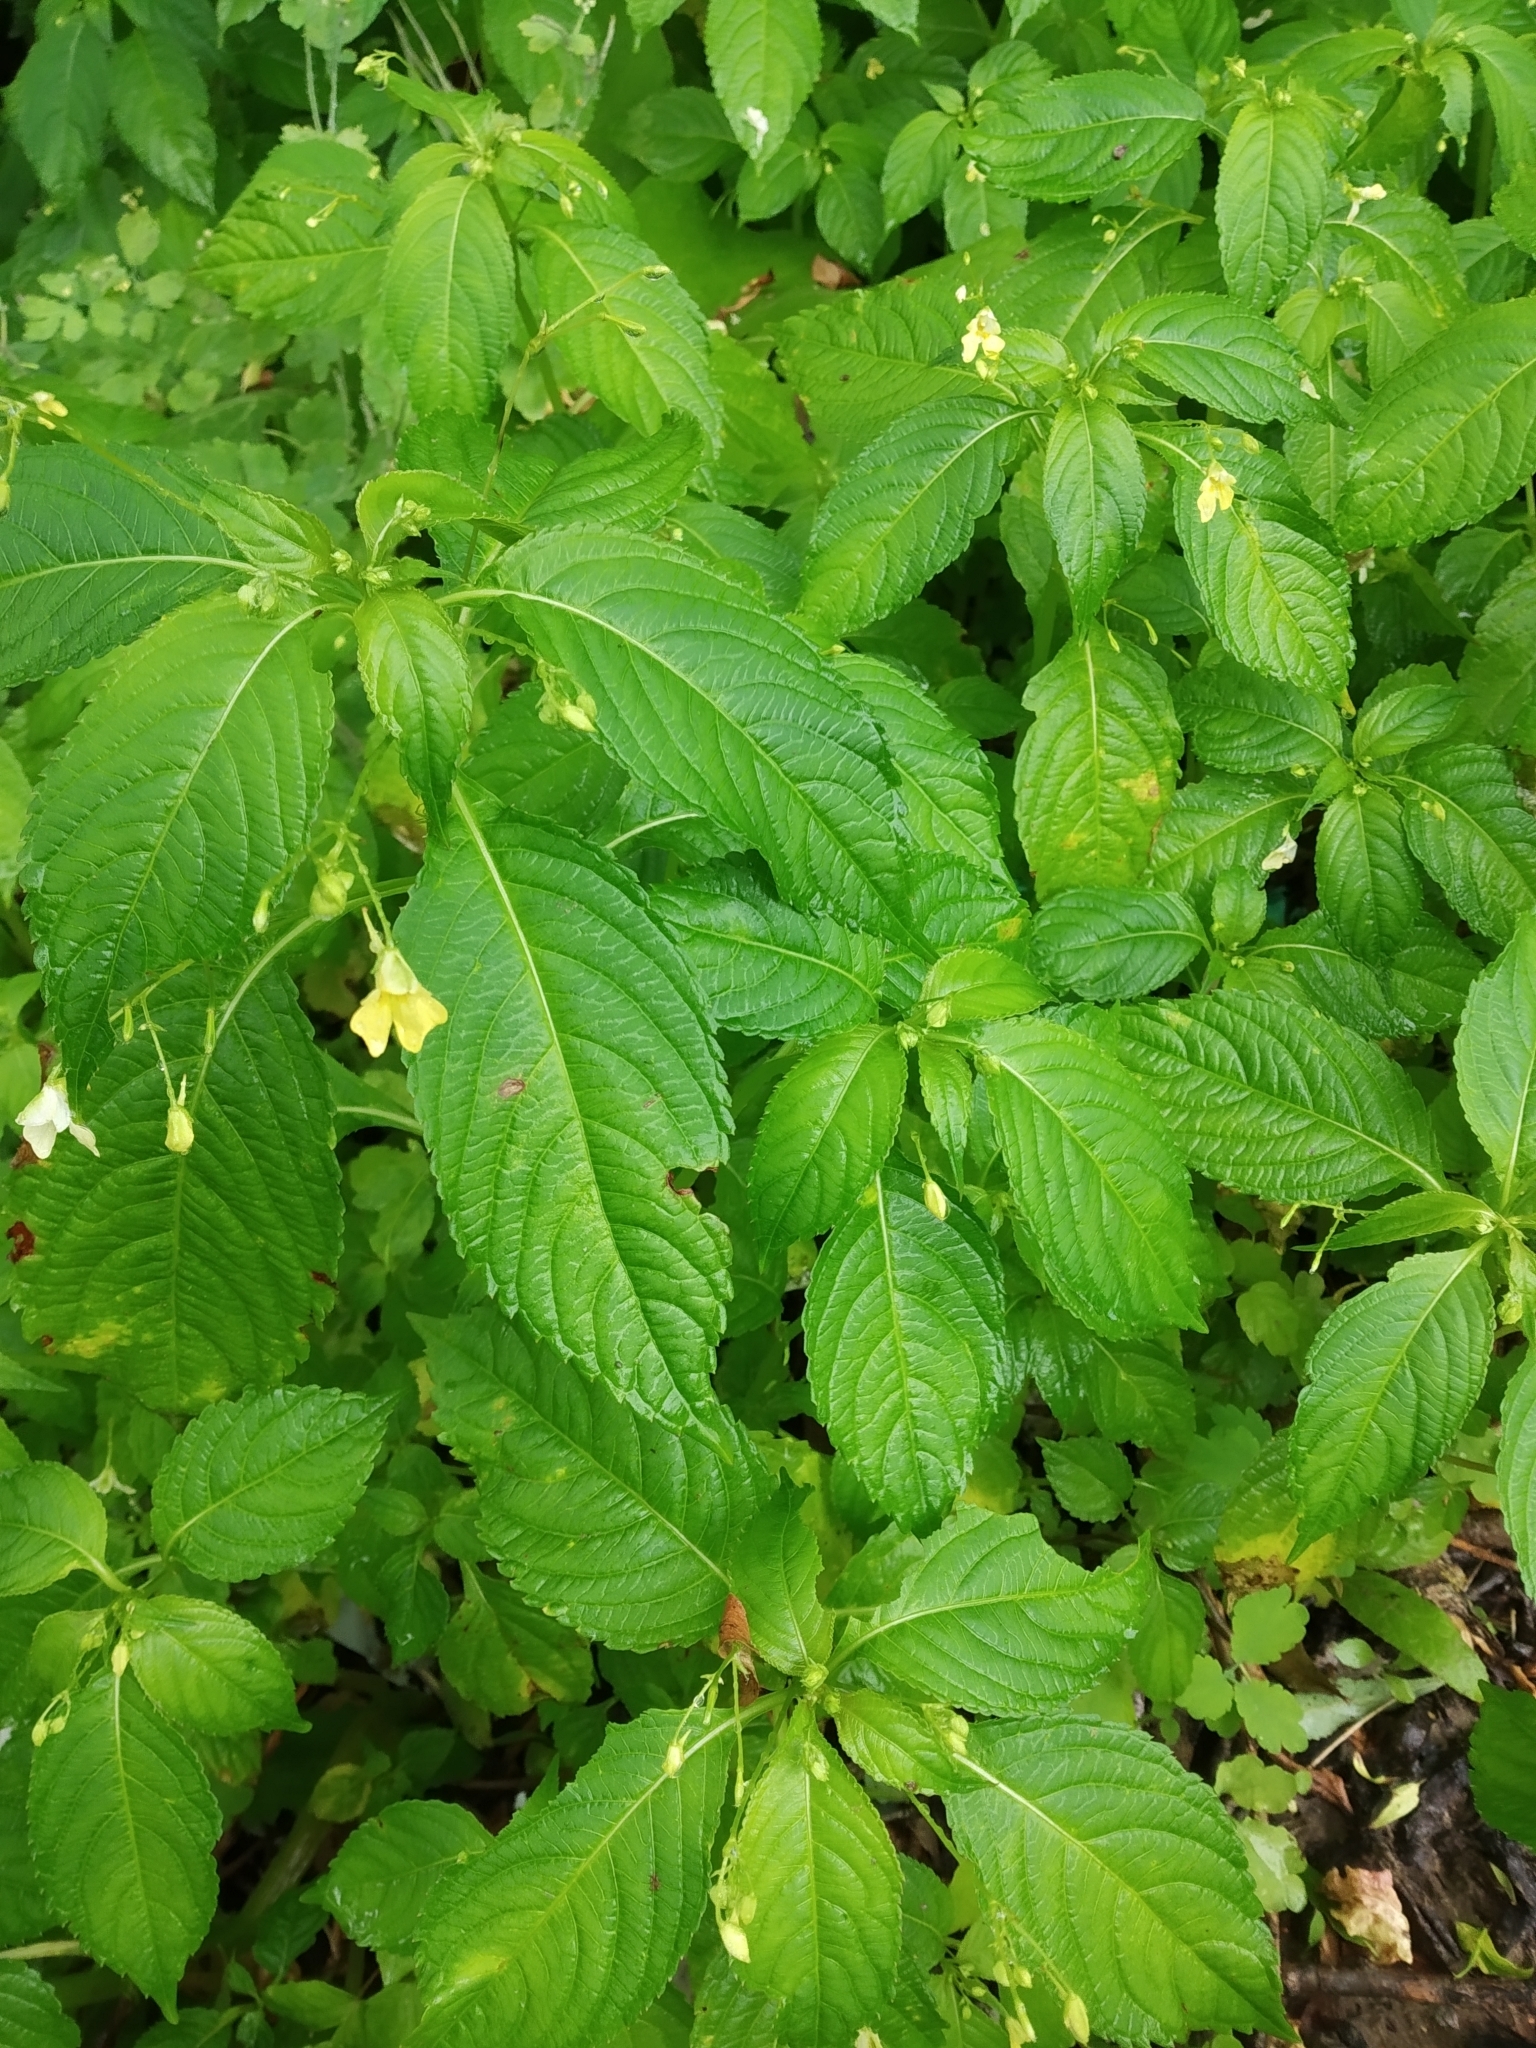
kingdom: Plantae
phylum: Tracheophyta
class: Magnoliopsida
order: Ericales
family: Balsaminaceae
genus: Impatiens
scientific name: Impatiens parviflora
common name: Small balsam
